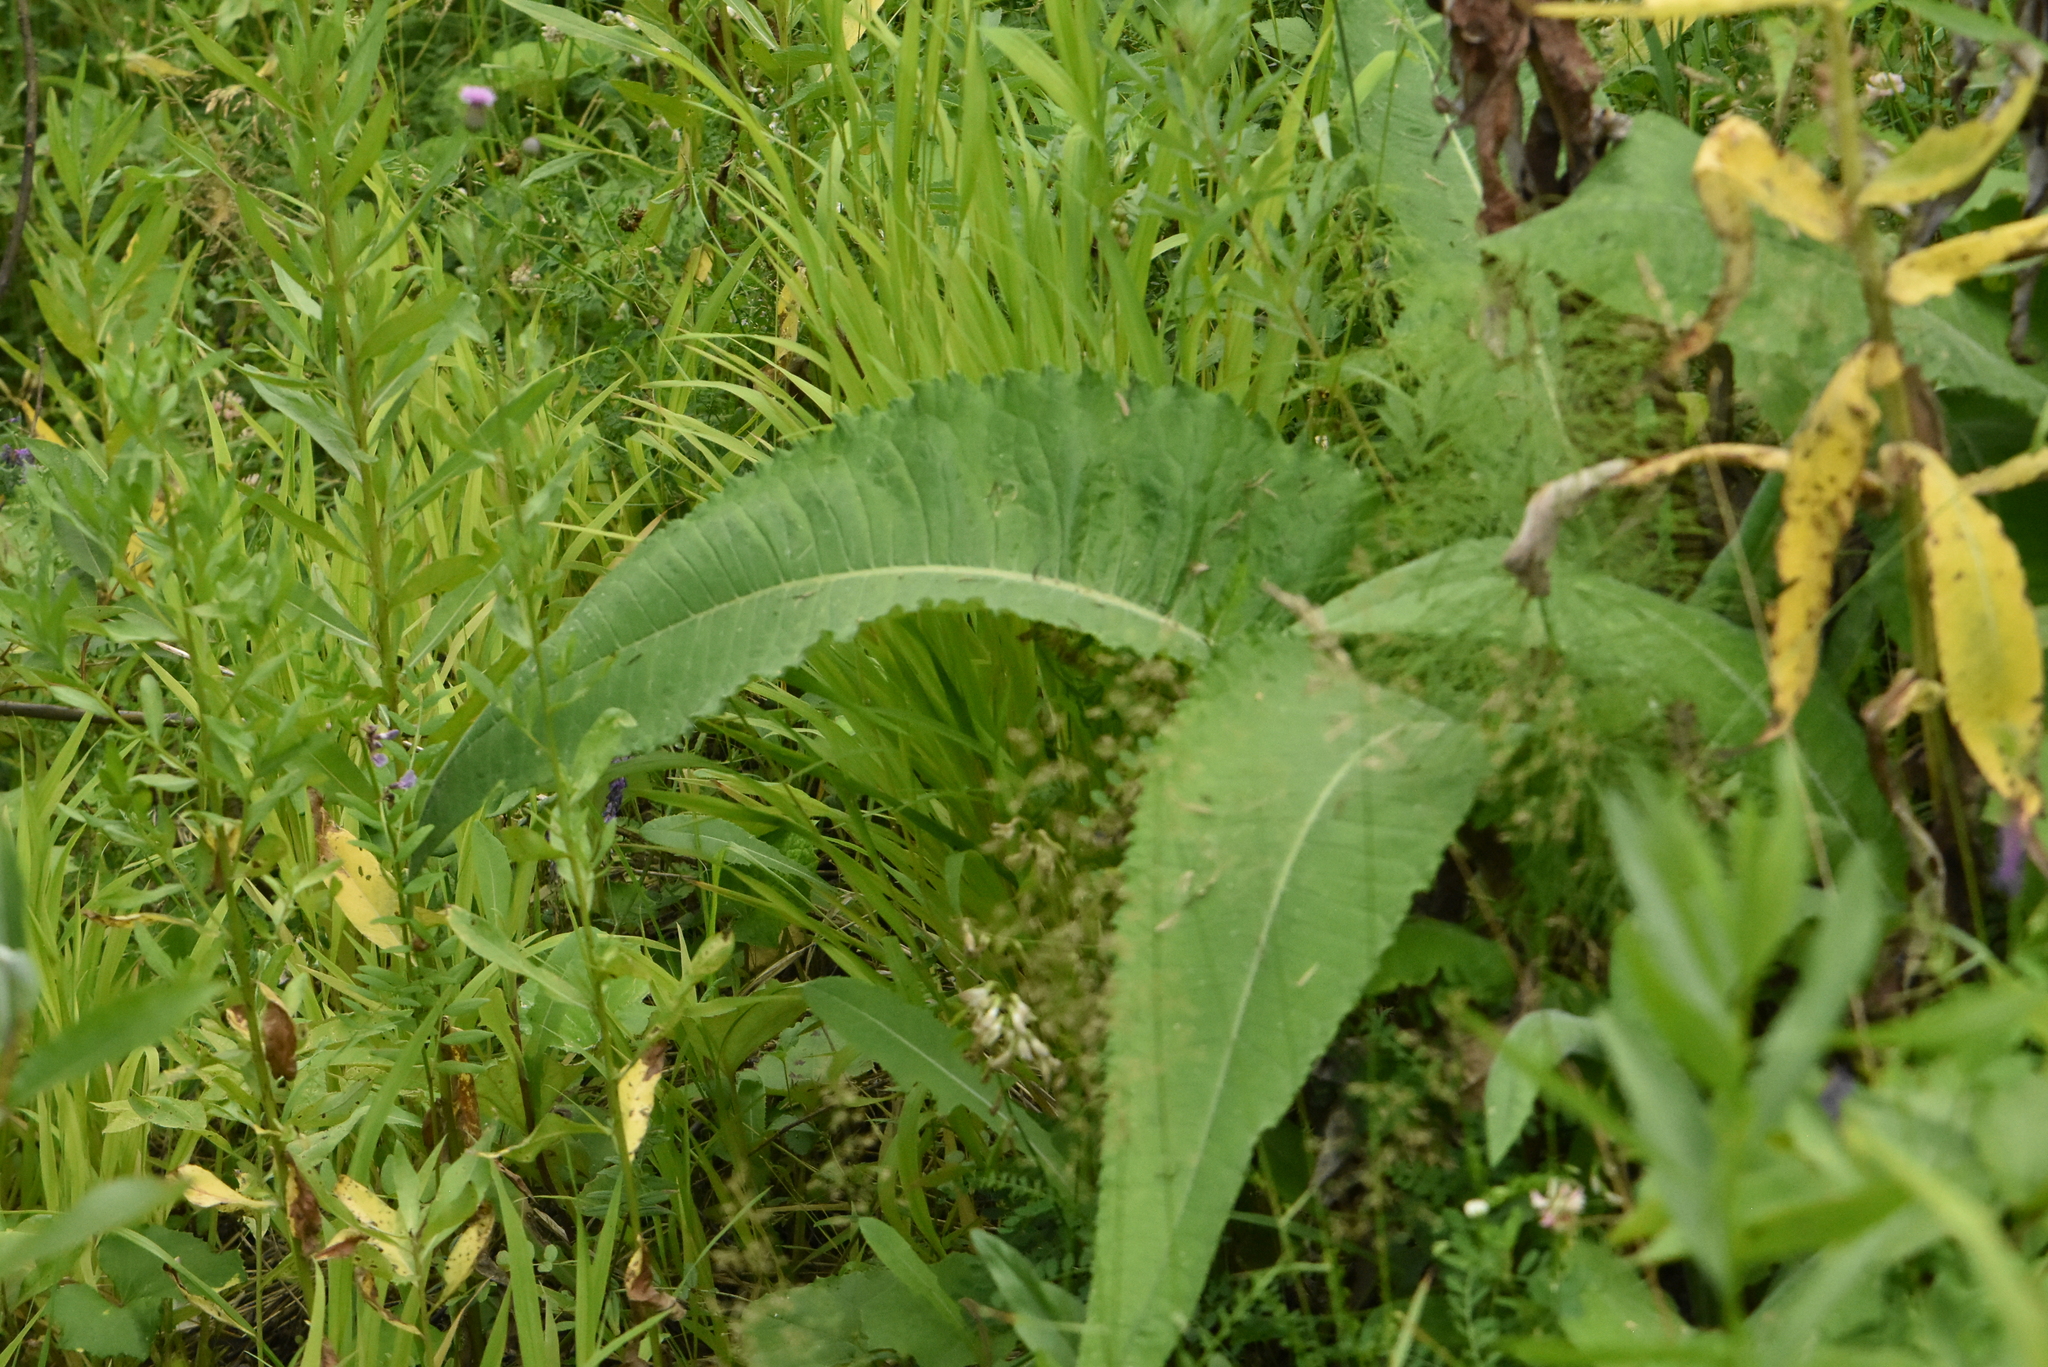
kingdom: Plantae
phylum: Tracheophyta
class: Magnoliopsida
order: Asterales
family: Asteraceae
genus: Cirsium
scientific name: Cirsium helenioides
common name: Melancholy thistle
